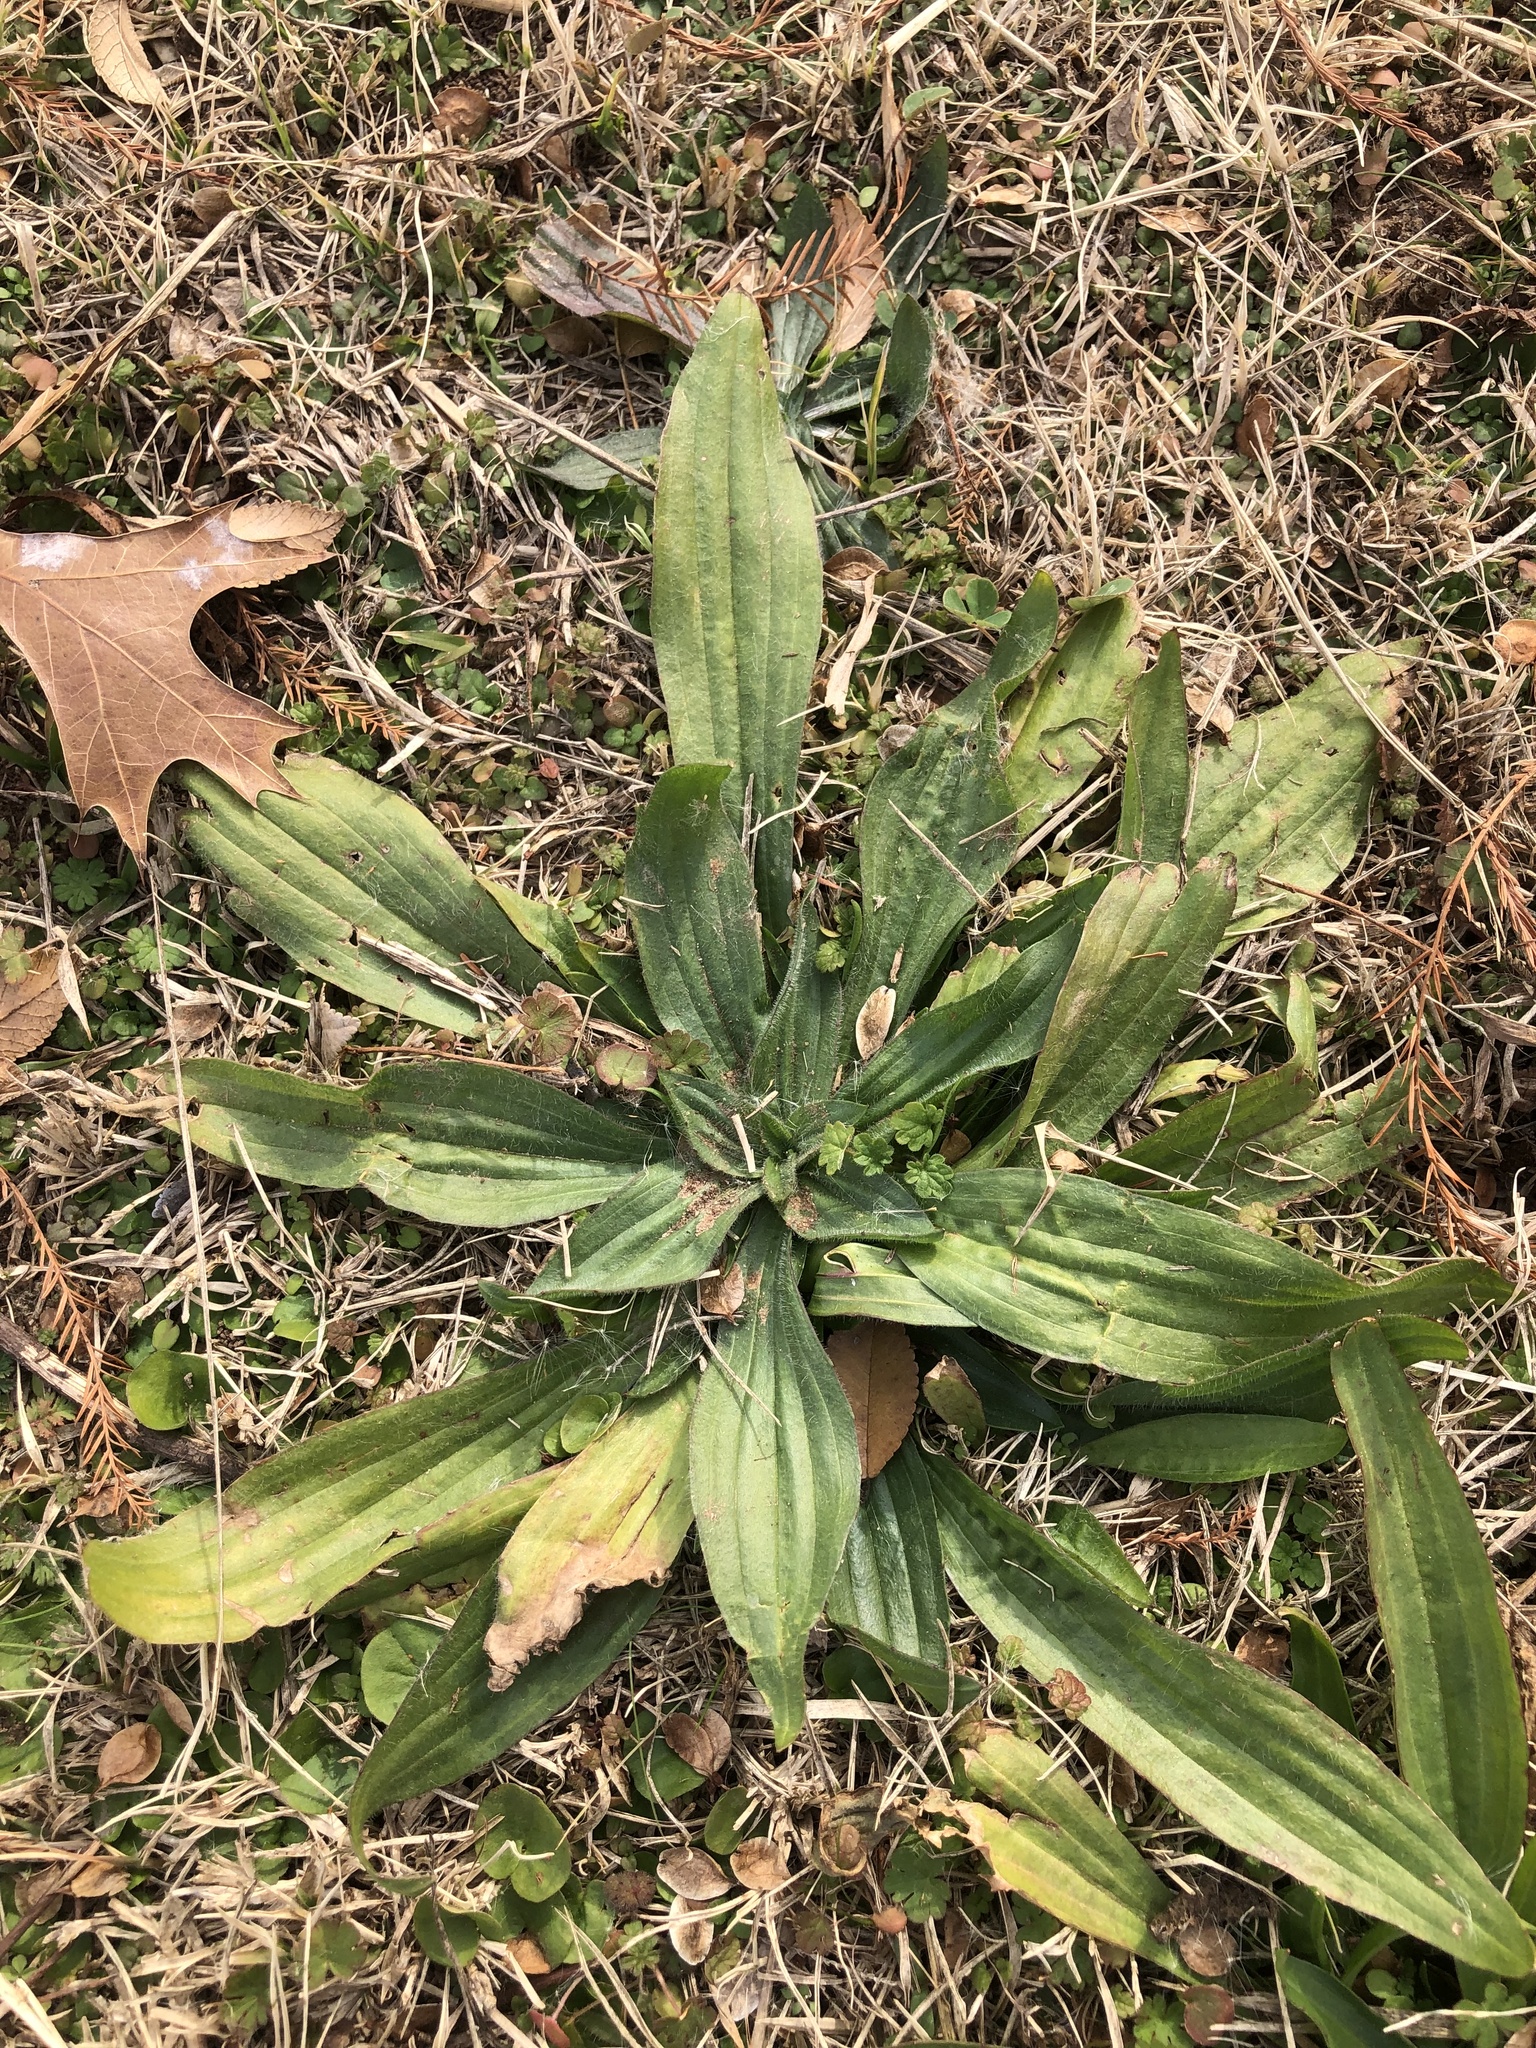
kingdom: Plantae
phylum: Tracheophyta
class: Magnoliopsida
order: Lamiales
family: Plantaginaceae
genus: Plantago
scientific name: Plantago lanceolata
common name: Ribwort plantain
